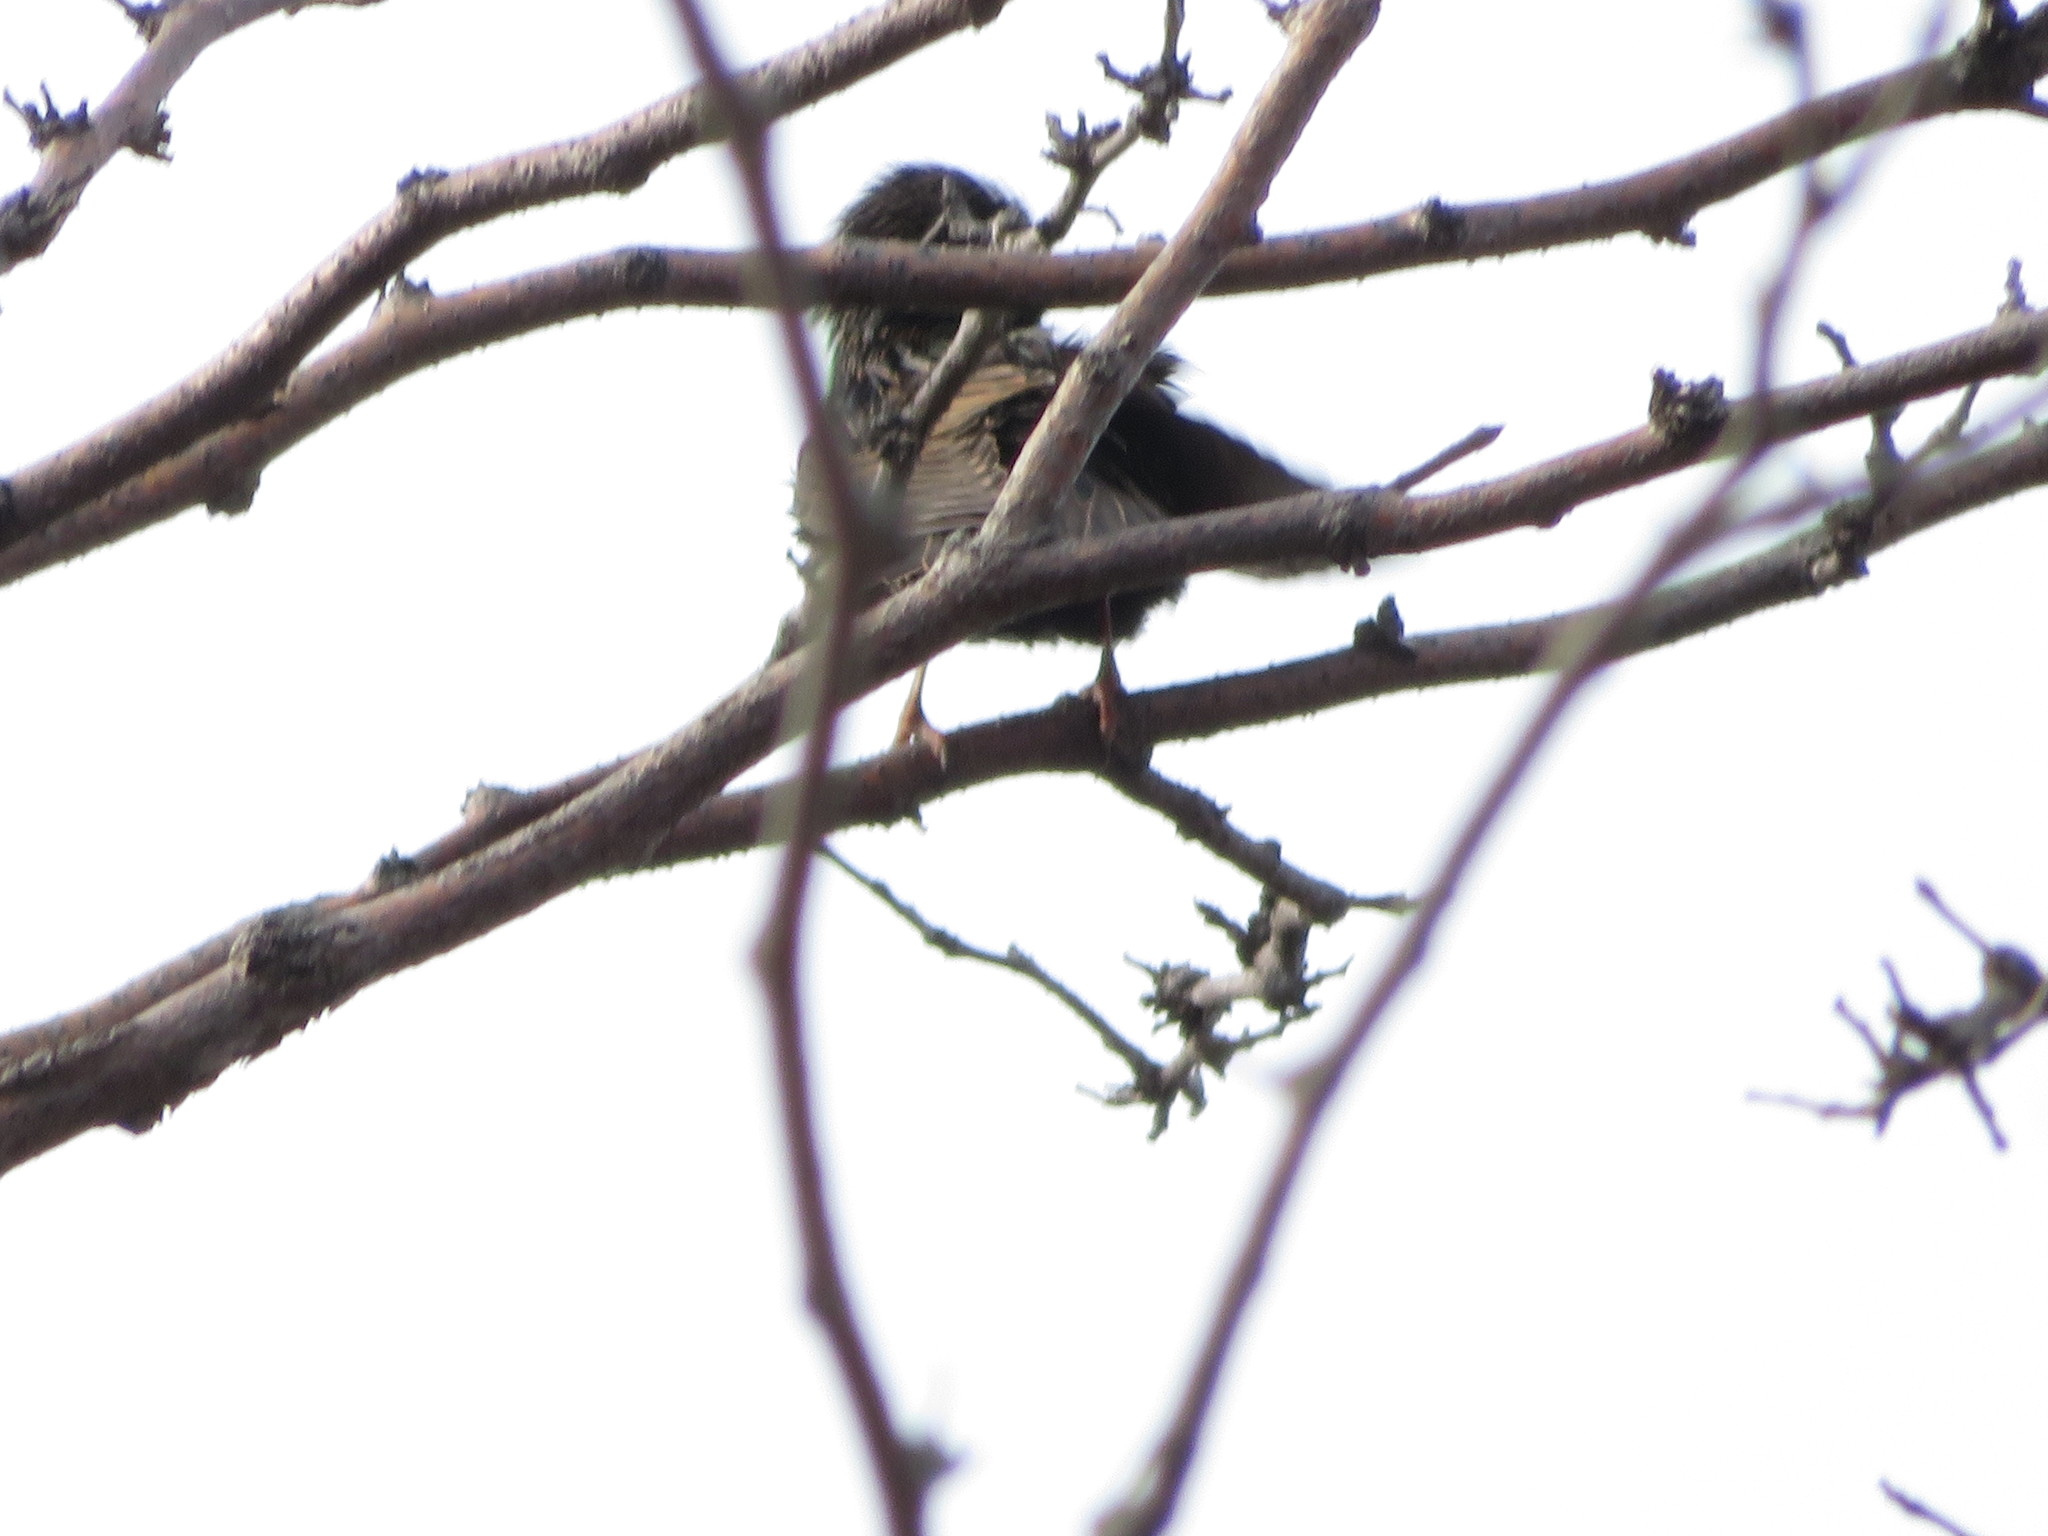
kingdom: Animalia
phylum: Chordata
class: Aves
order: Passeriformes
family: Sturnidae
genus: Sturnus
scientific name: Sturnus vulgaris
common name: Common starling
